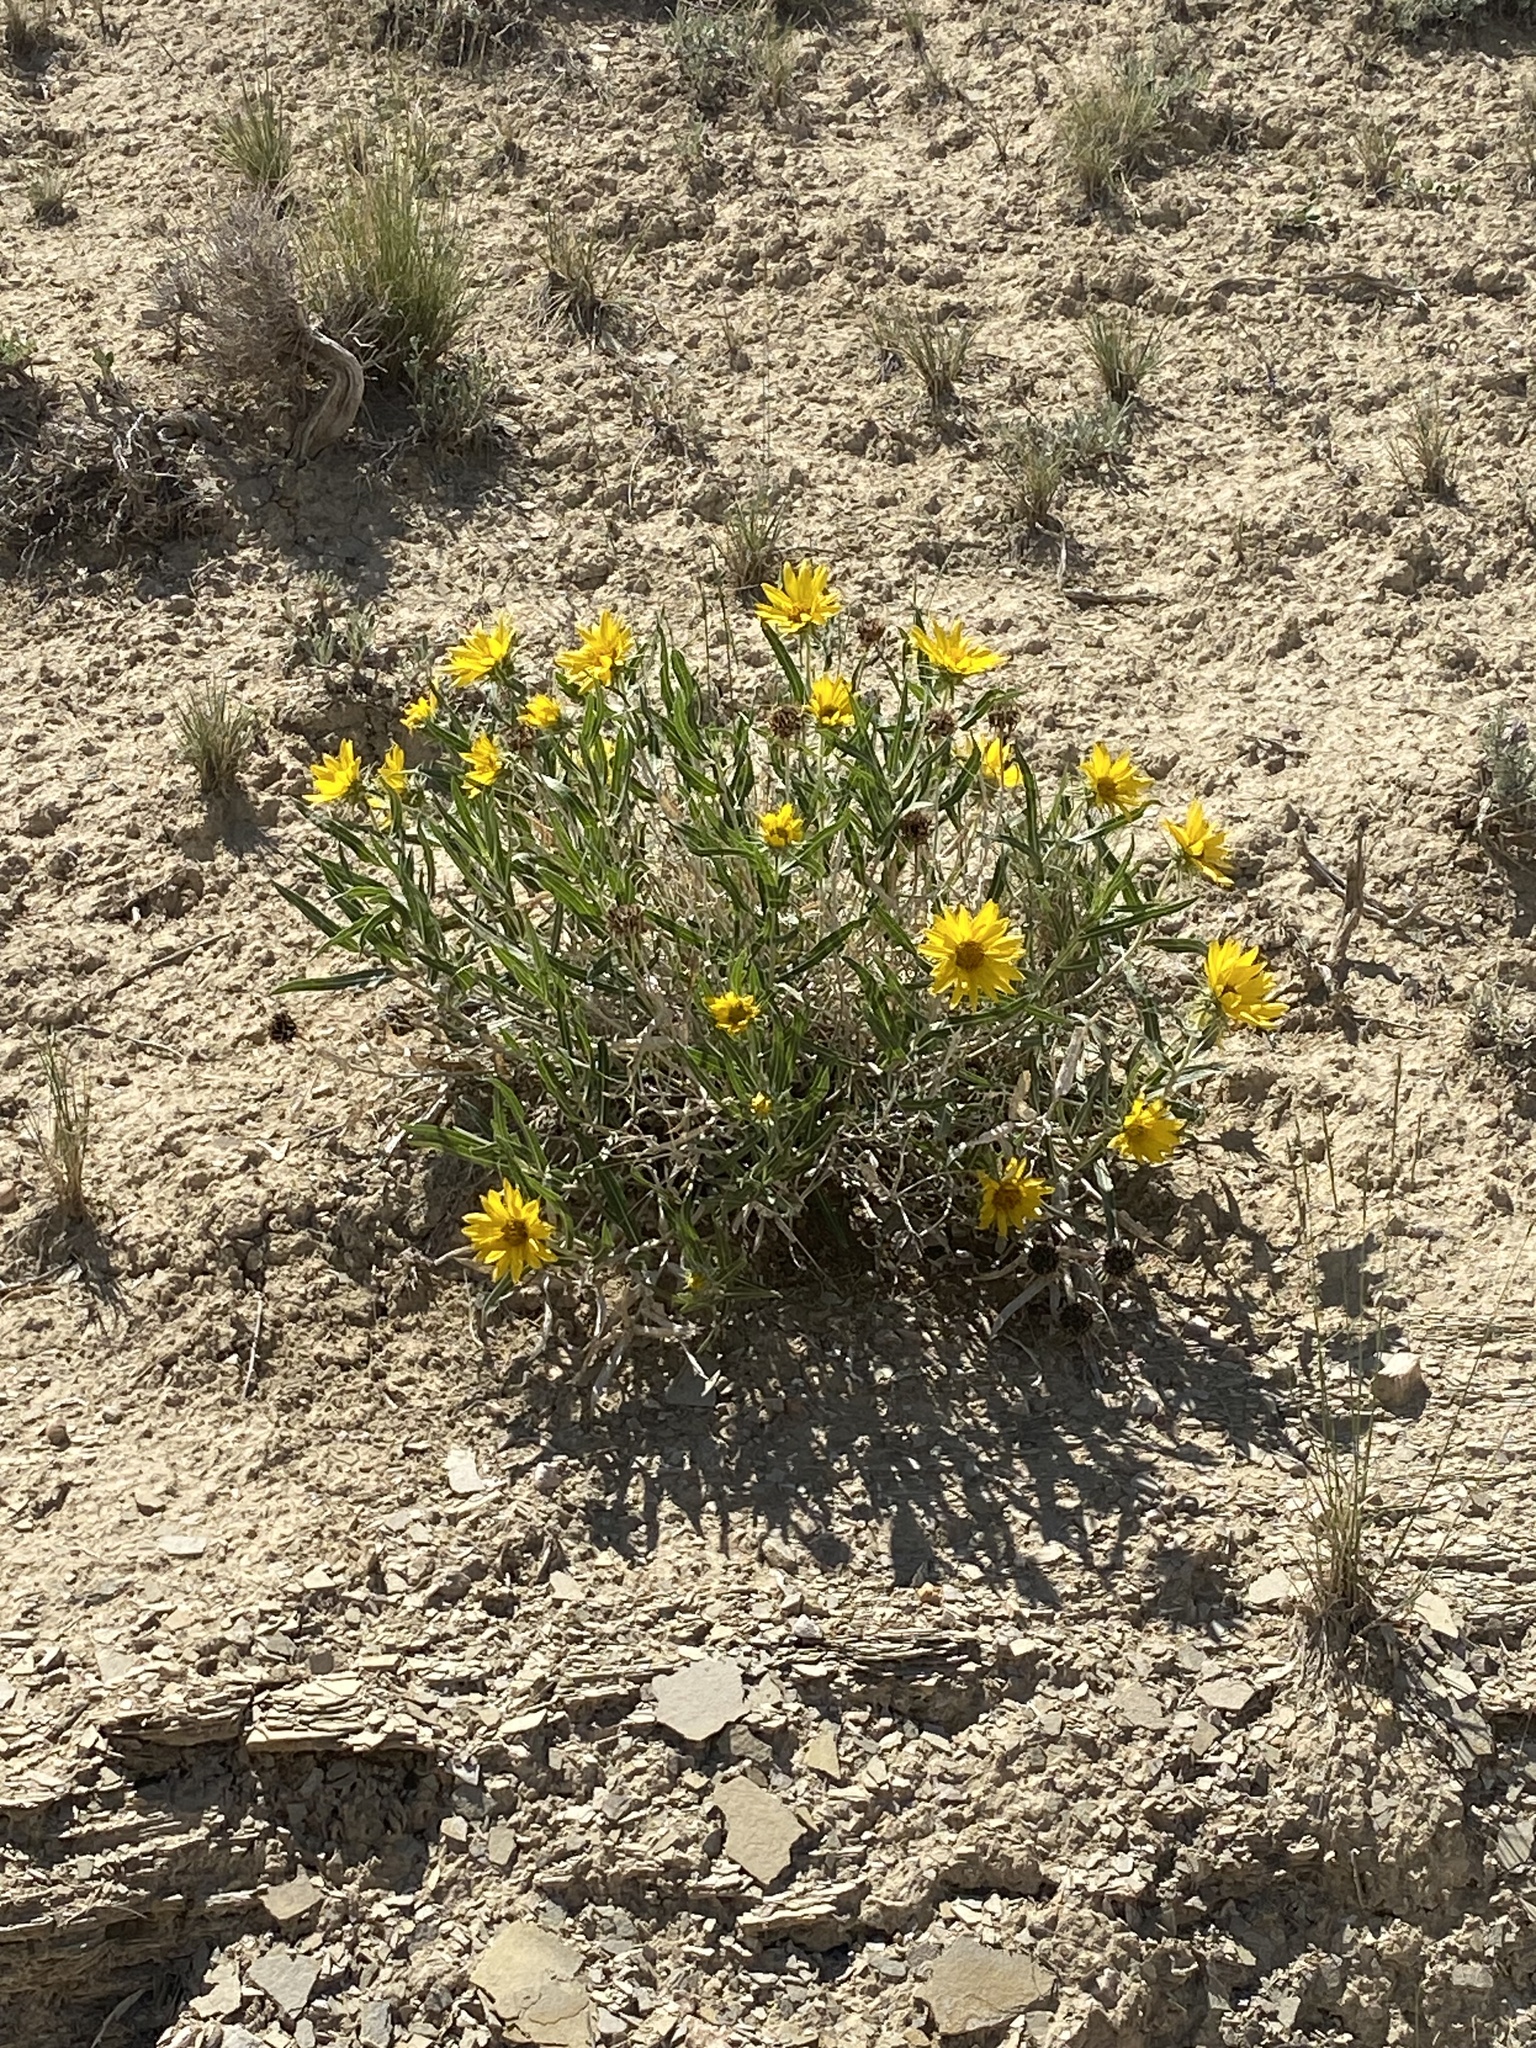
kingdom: Plantae
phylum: Tracheophyta
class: Magnoliopsida
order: Asterales
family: Asteraceae
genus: Scabrethia
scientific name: Scabrethia scabra
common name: Rough mules's-ears
